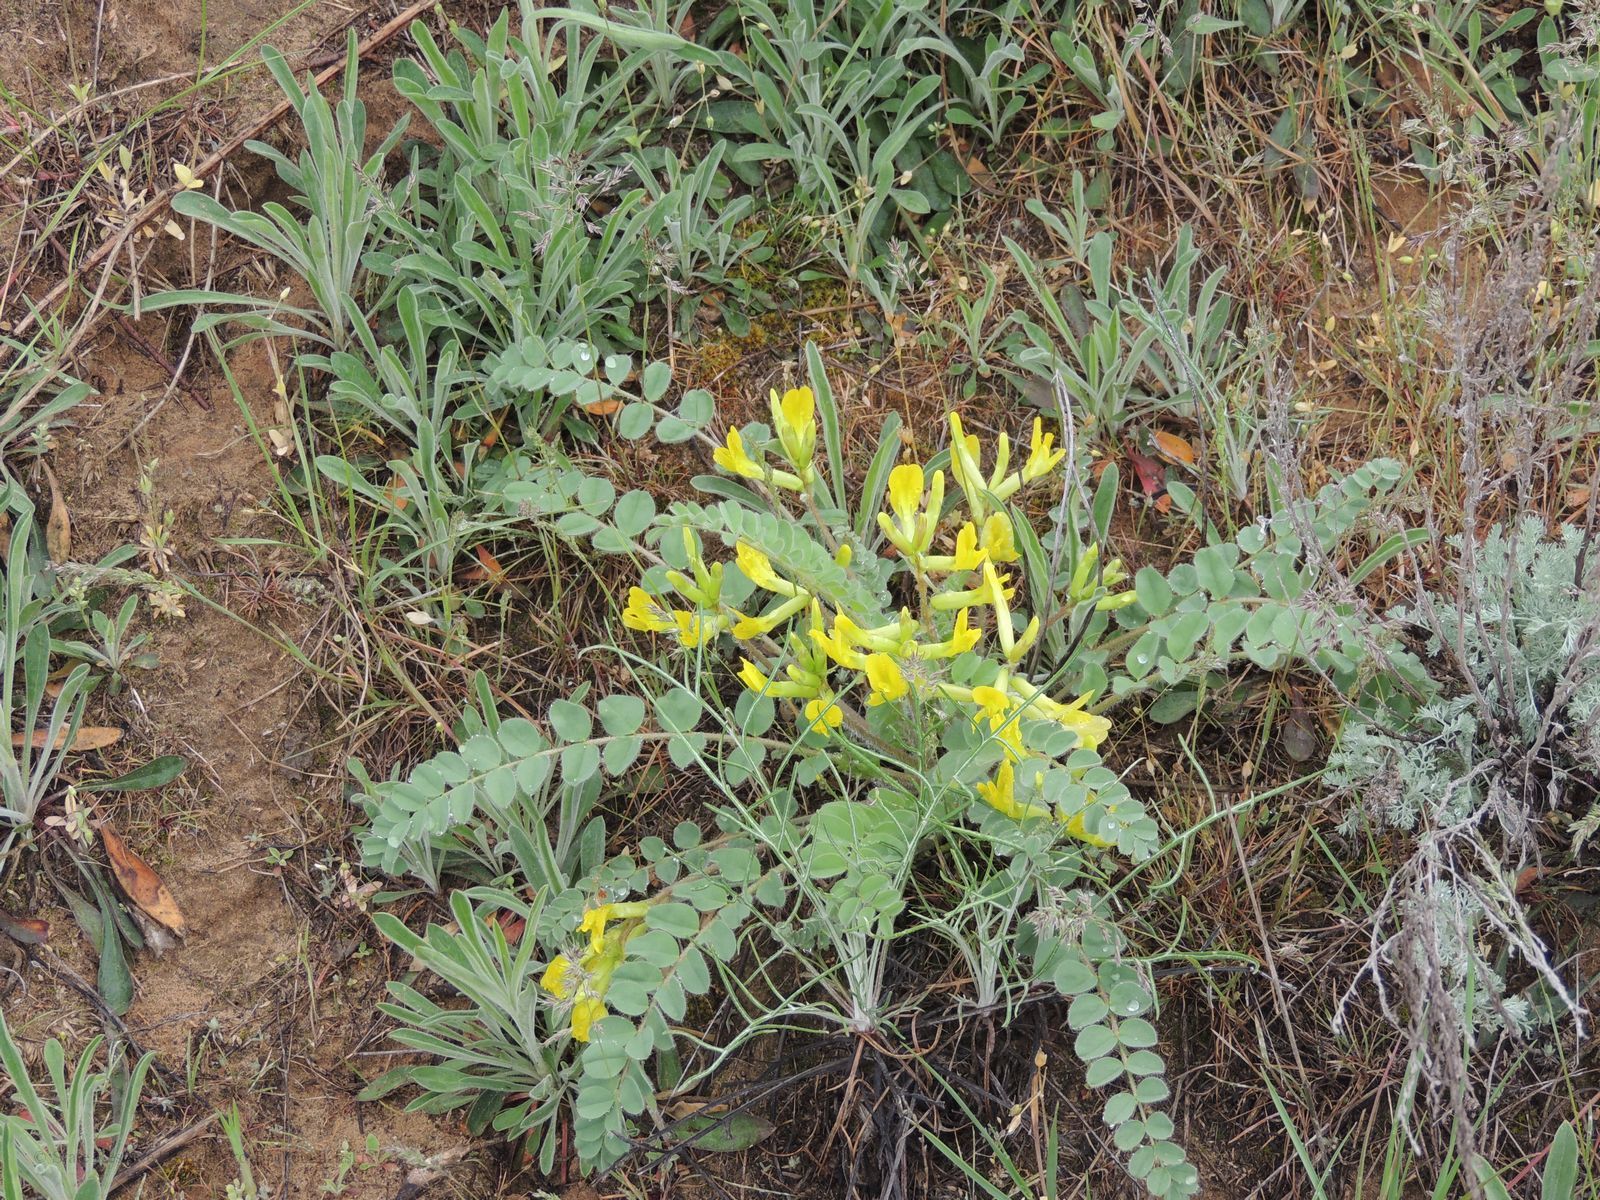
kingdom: Plantae
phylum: Tracheophyta
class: Magnoliopsida
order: Fabales
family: Fabaceae
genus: Astragalus
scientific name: Astragalus longipetalus
